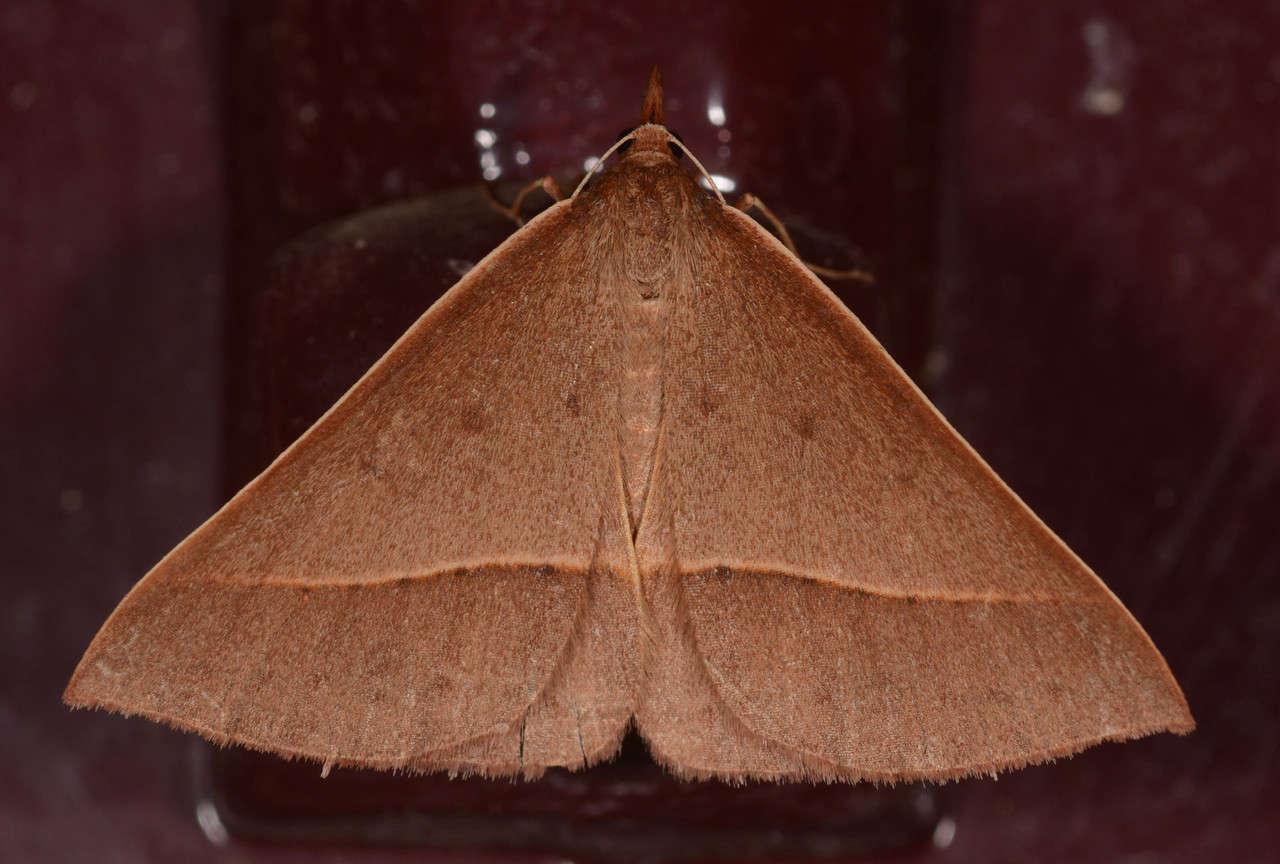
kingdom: Animalia
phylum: Arthropoda
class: Insecta
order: Lepidoptera
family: Geometridae
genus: Epidesmia
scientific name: Epidesmia chilonaria
